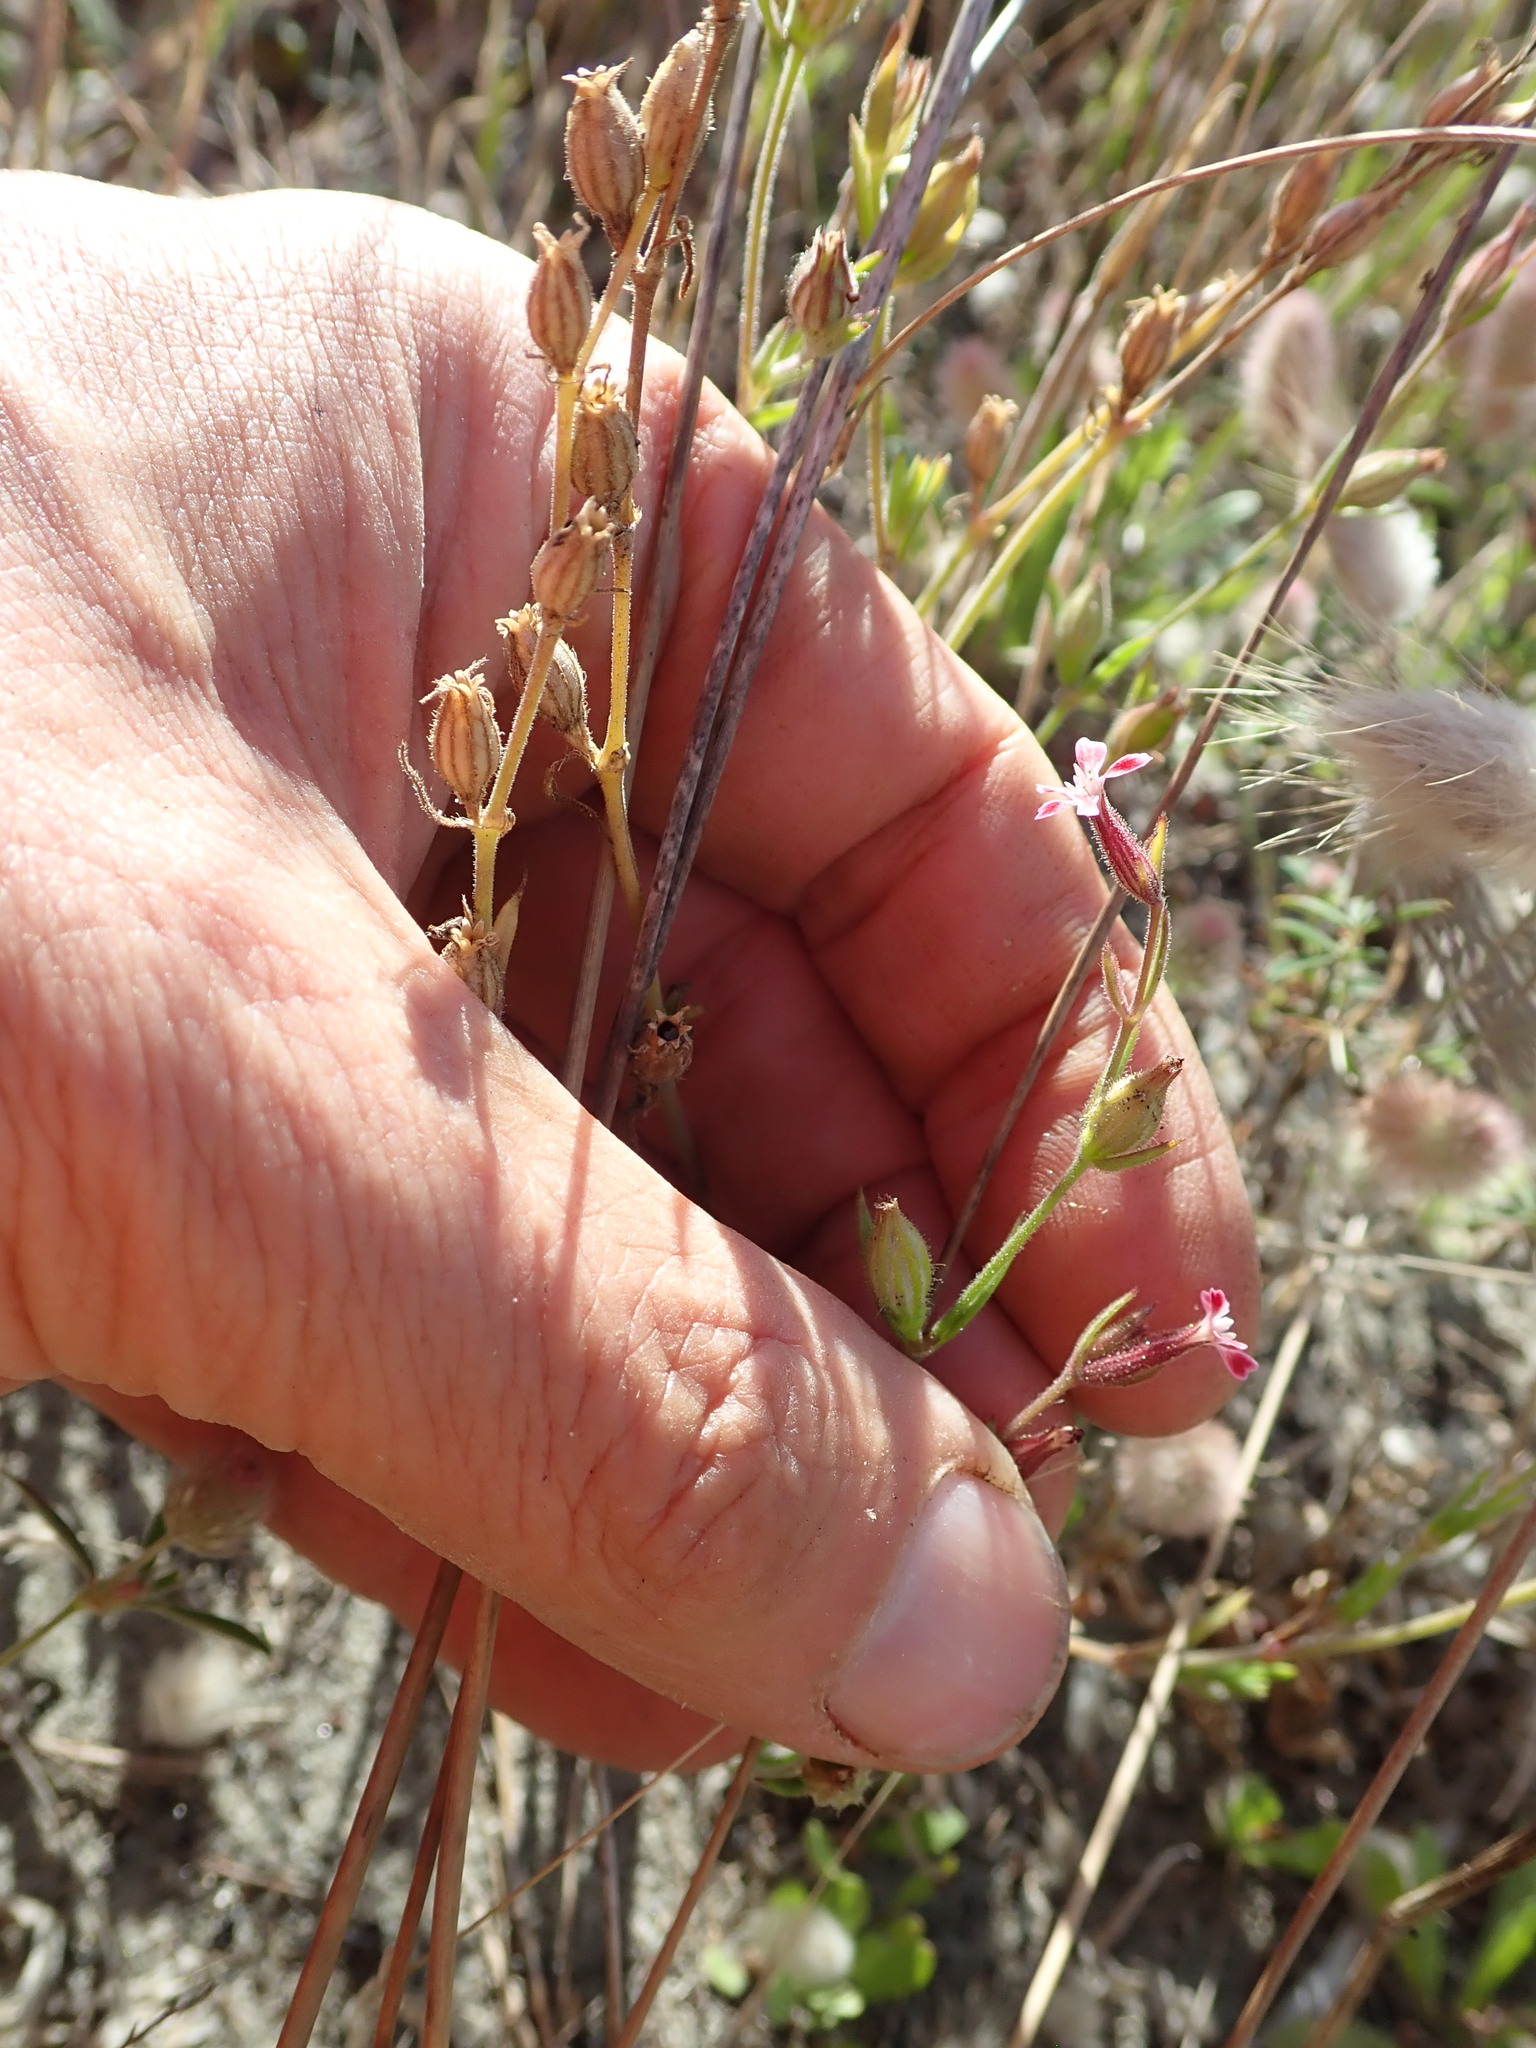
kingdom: Plantae
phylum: Tracheophyta
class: Magnoliopsida
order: Caryophyllales
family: Caryophyllaceae
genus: Silene
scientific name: Silene gallica
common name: Small-flowered catchfly
